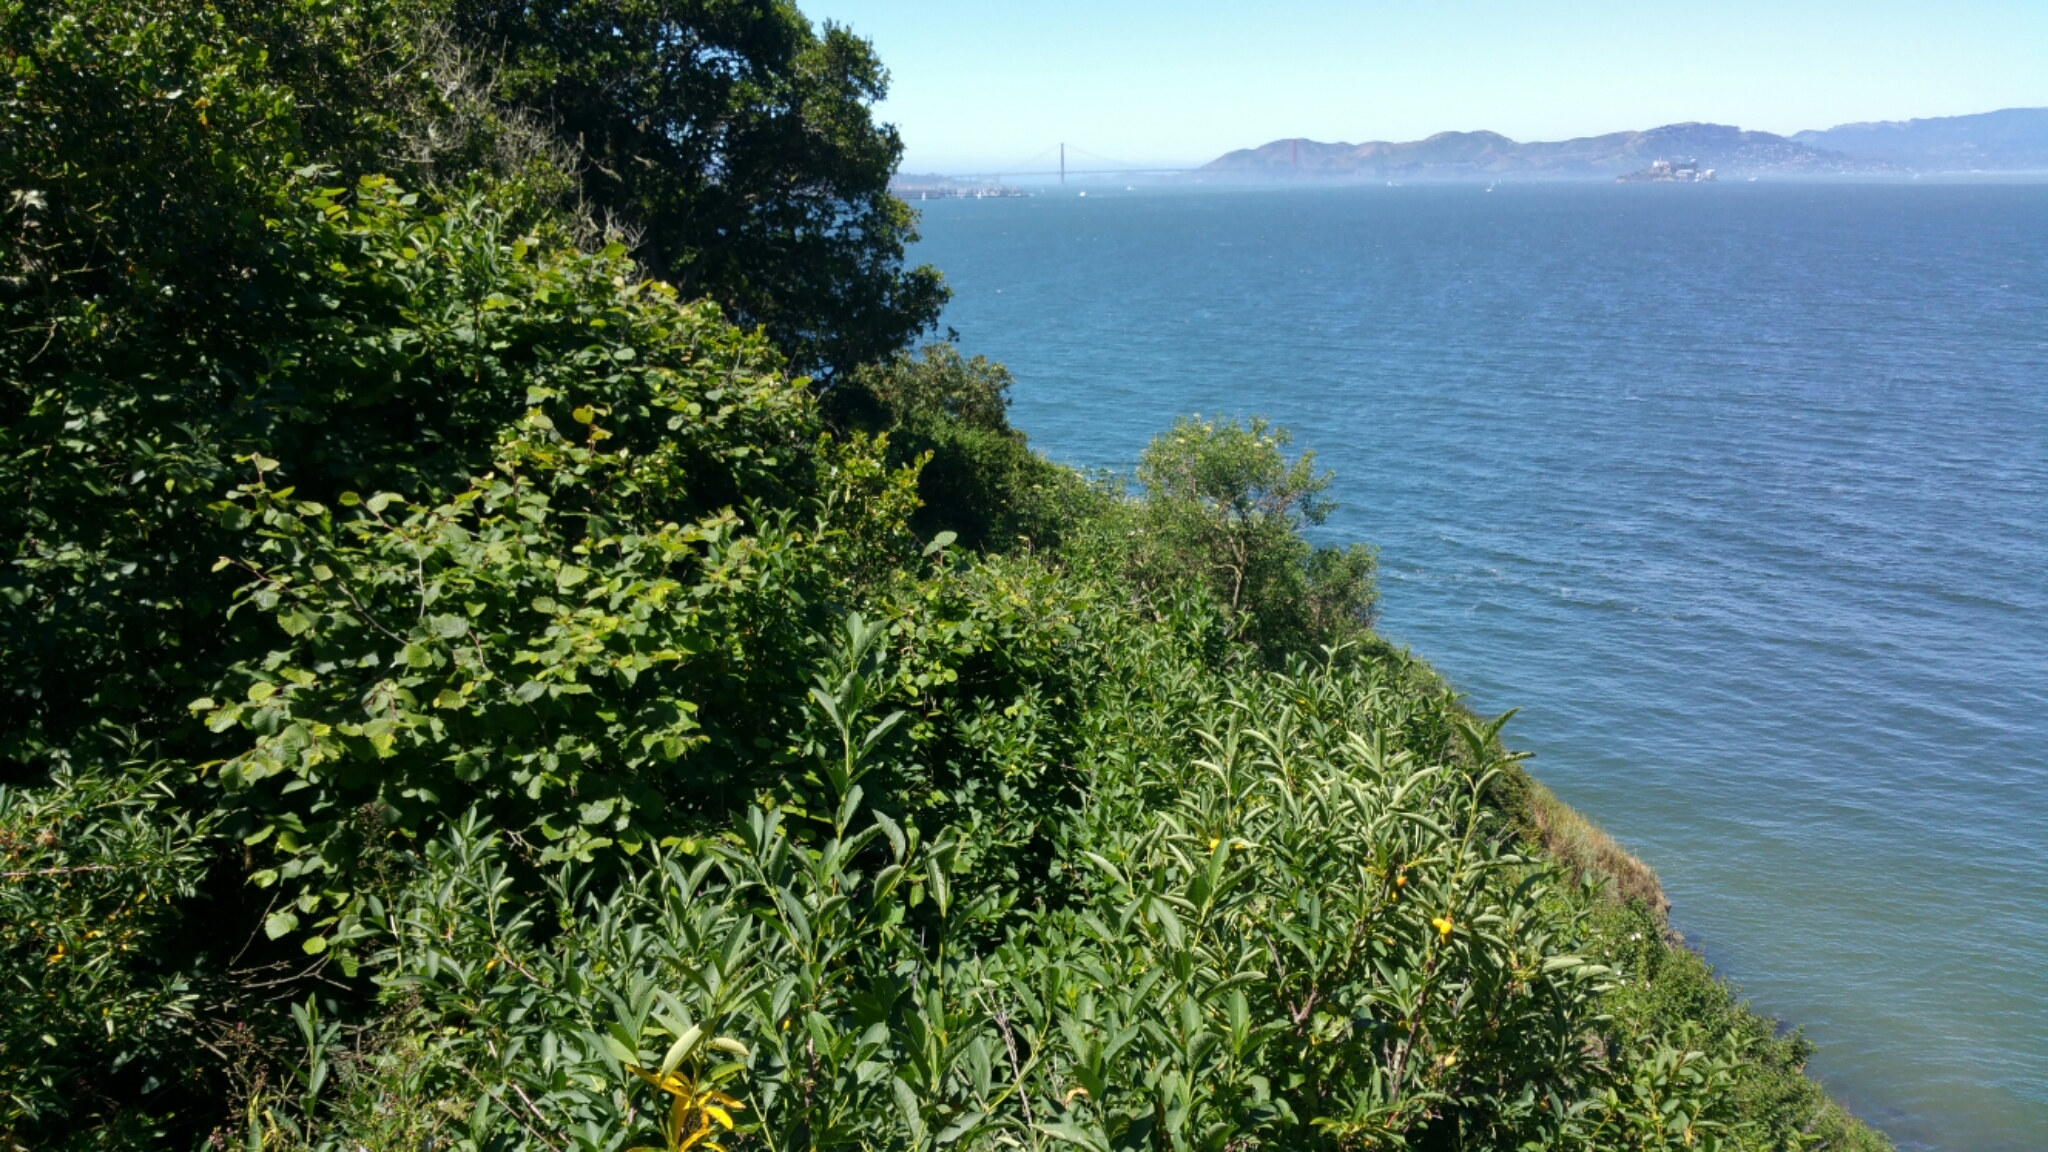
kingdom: Plantae
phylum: Tracheophyta
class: Magnoliopsida
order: Fagales
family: Betulaceae
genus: Corylus
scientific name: Corylus cornuta
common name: Beaked hazel
